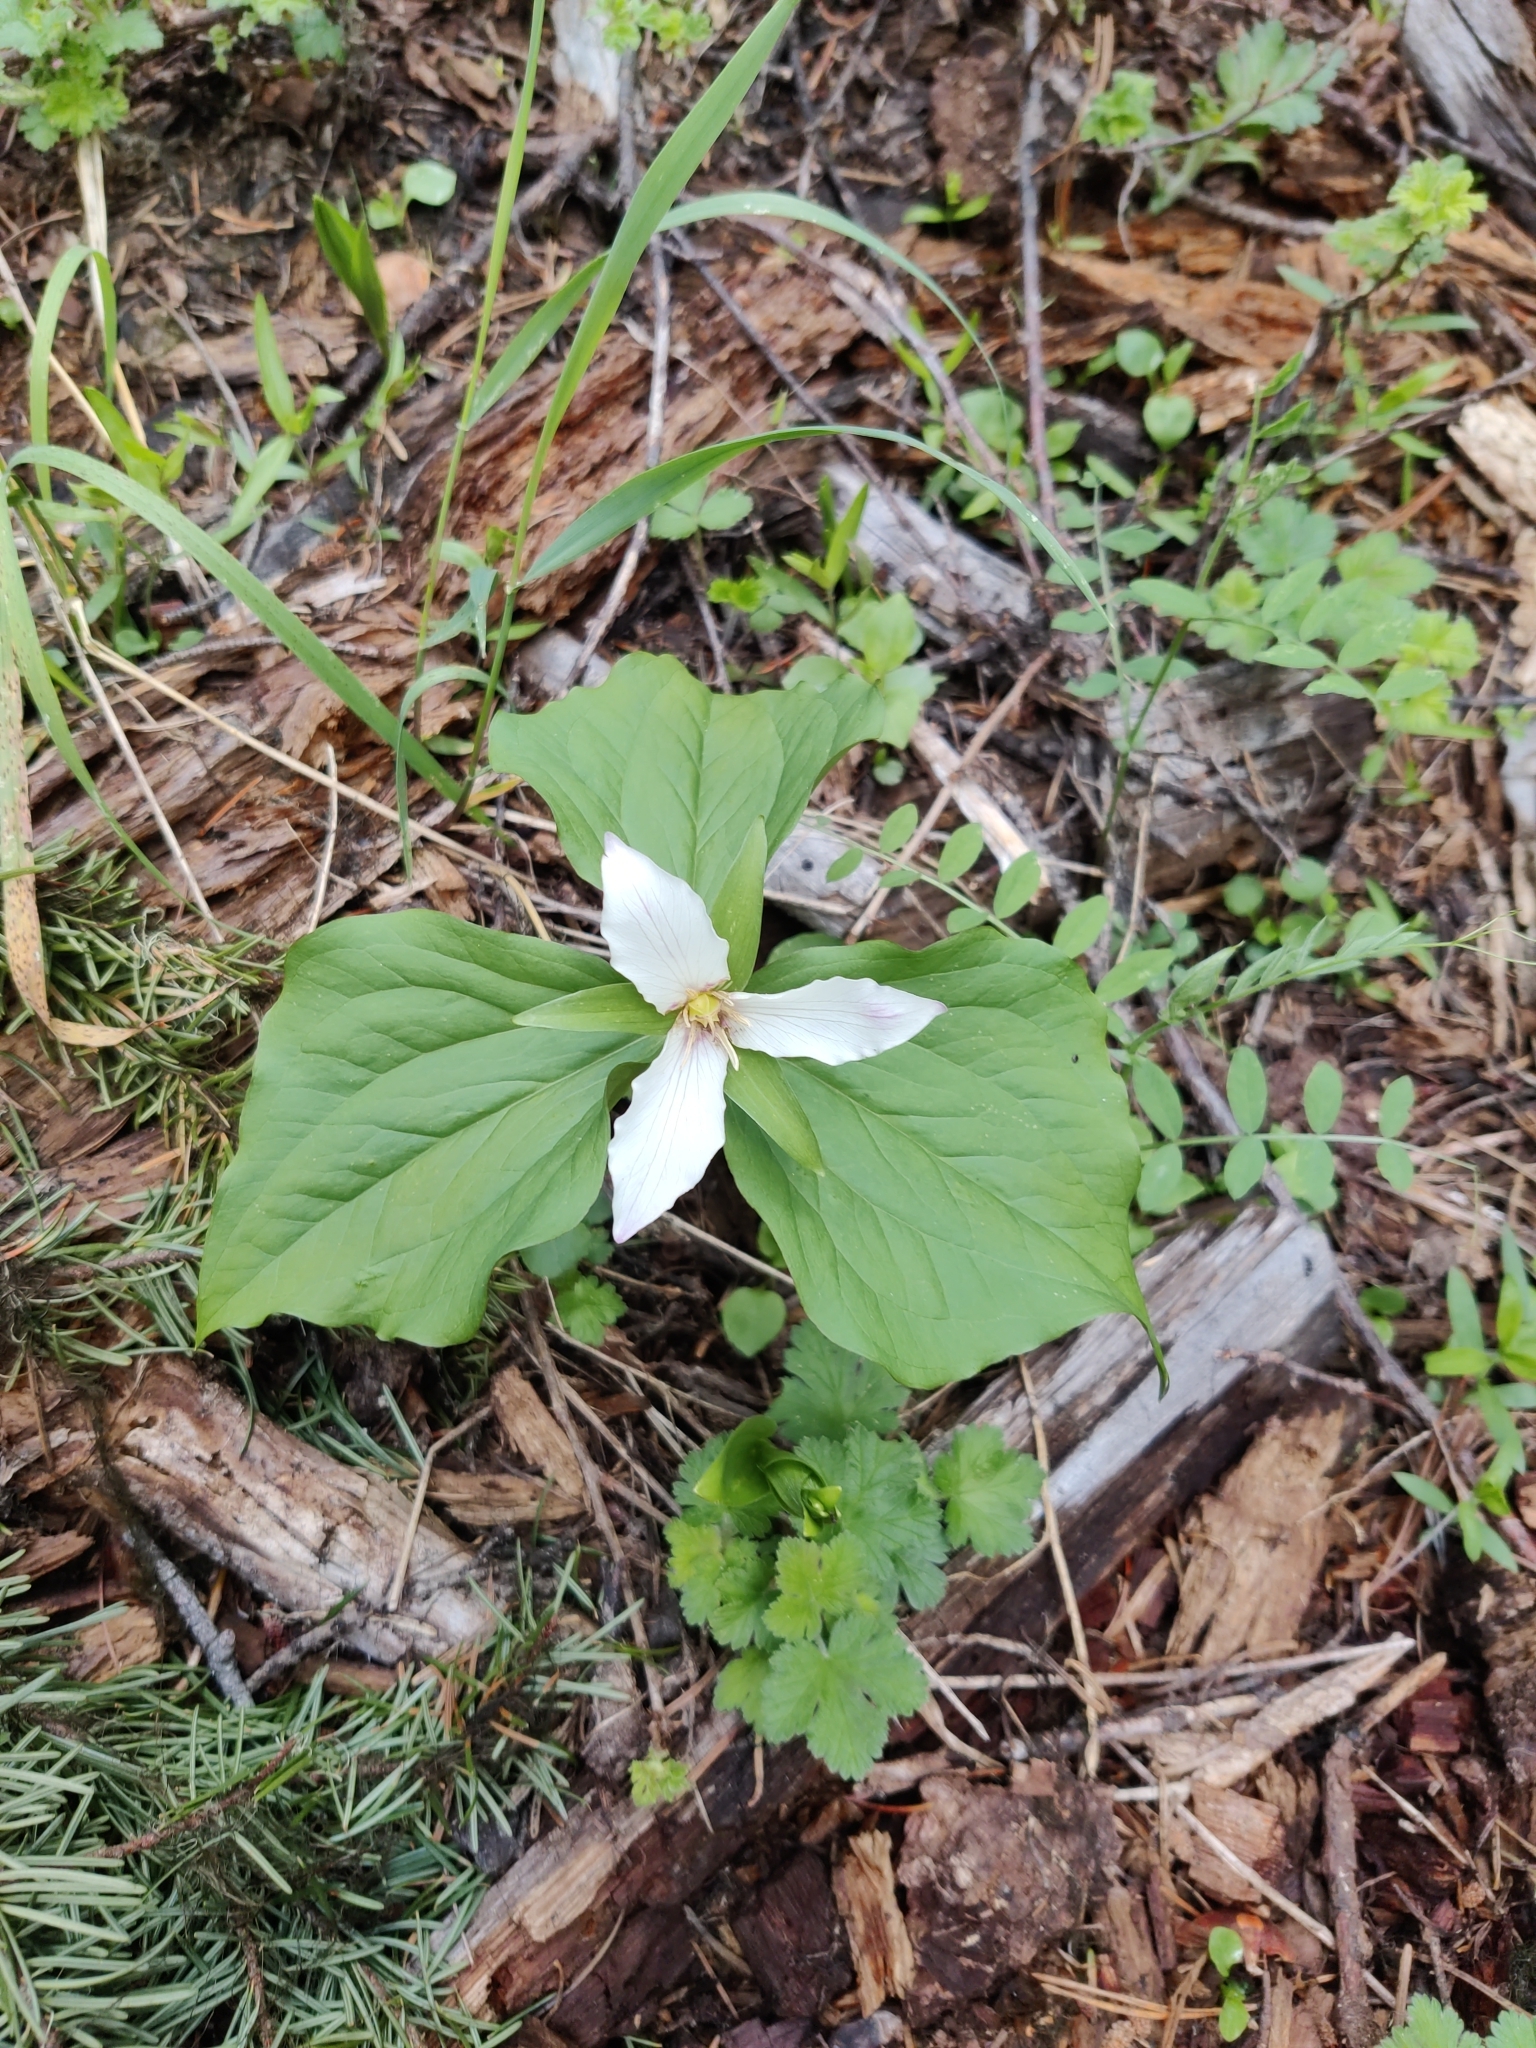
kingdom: Plantae
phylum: Tracheophyta
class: Liliopsida
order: Liliales
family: Melanthiaceae
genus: Trillium
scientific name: Trillium ovatum
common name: Pacific trillium
